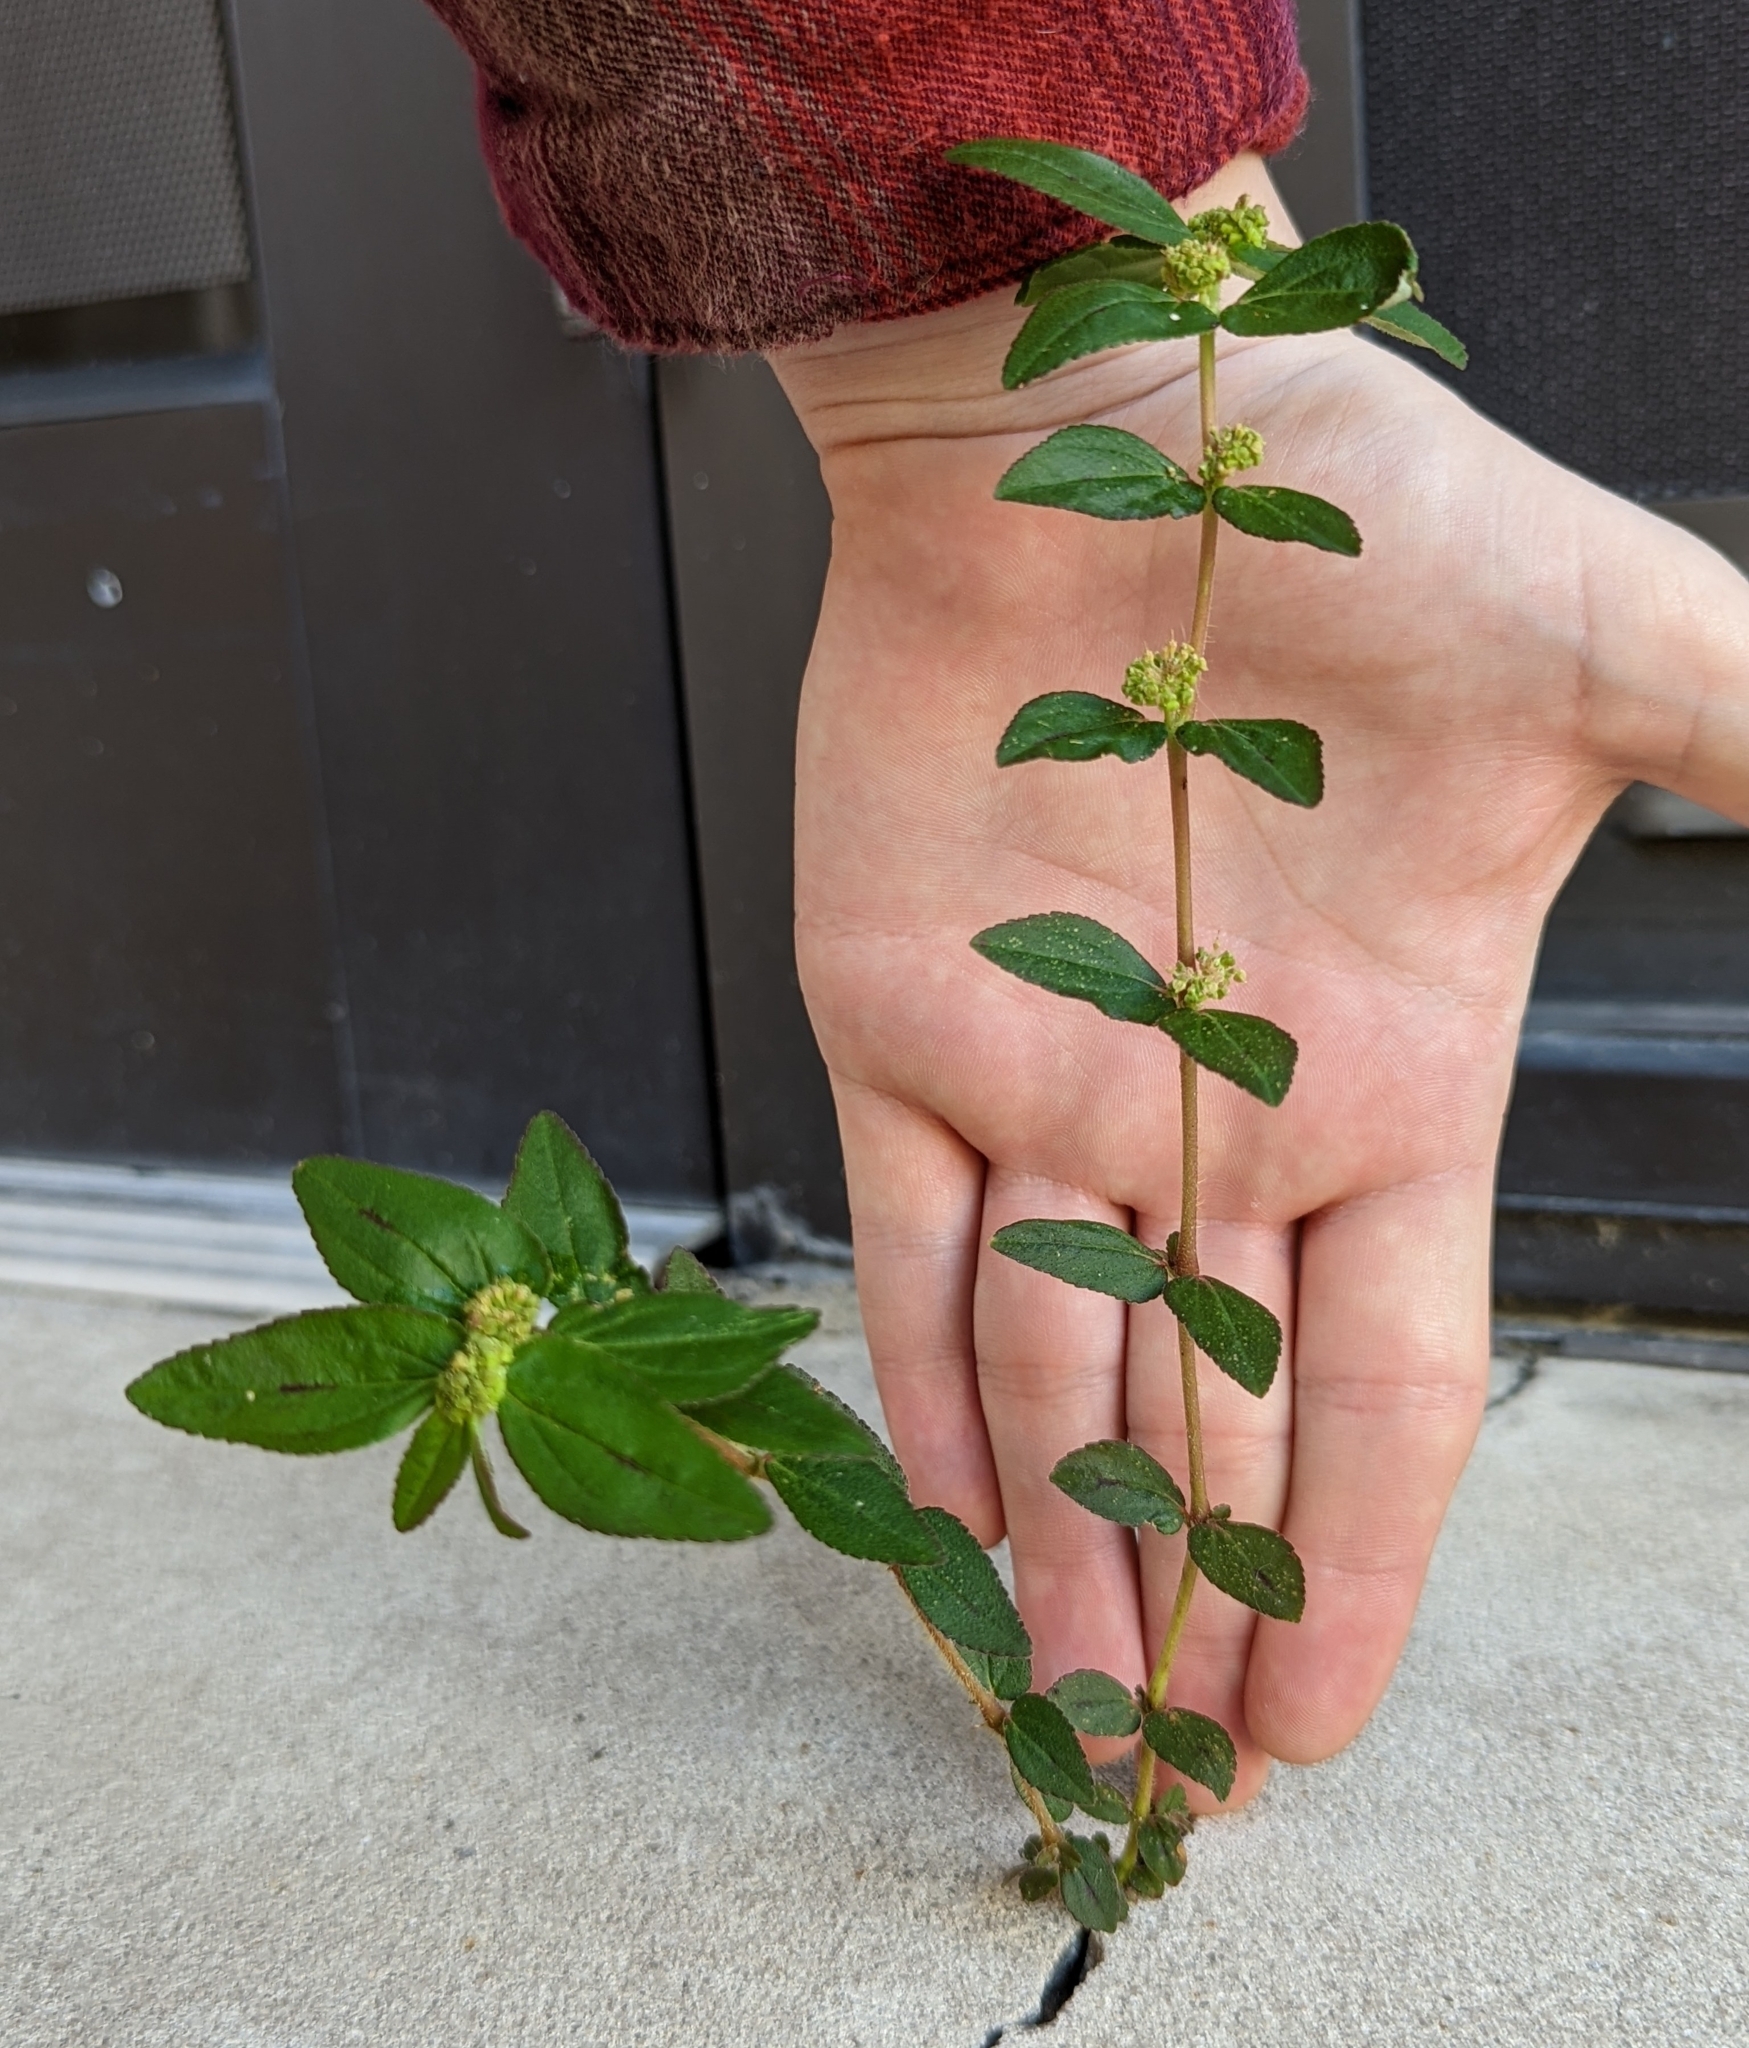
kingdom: Plantae
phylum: Tracheophyta
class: Magnoliopsida
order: Malpighiales
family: Euphorbiaceae
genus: Euphorbia
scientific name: Euphorbia hirta
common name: Pillpod sandmat
